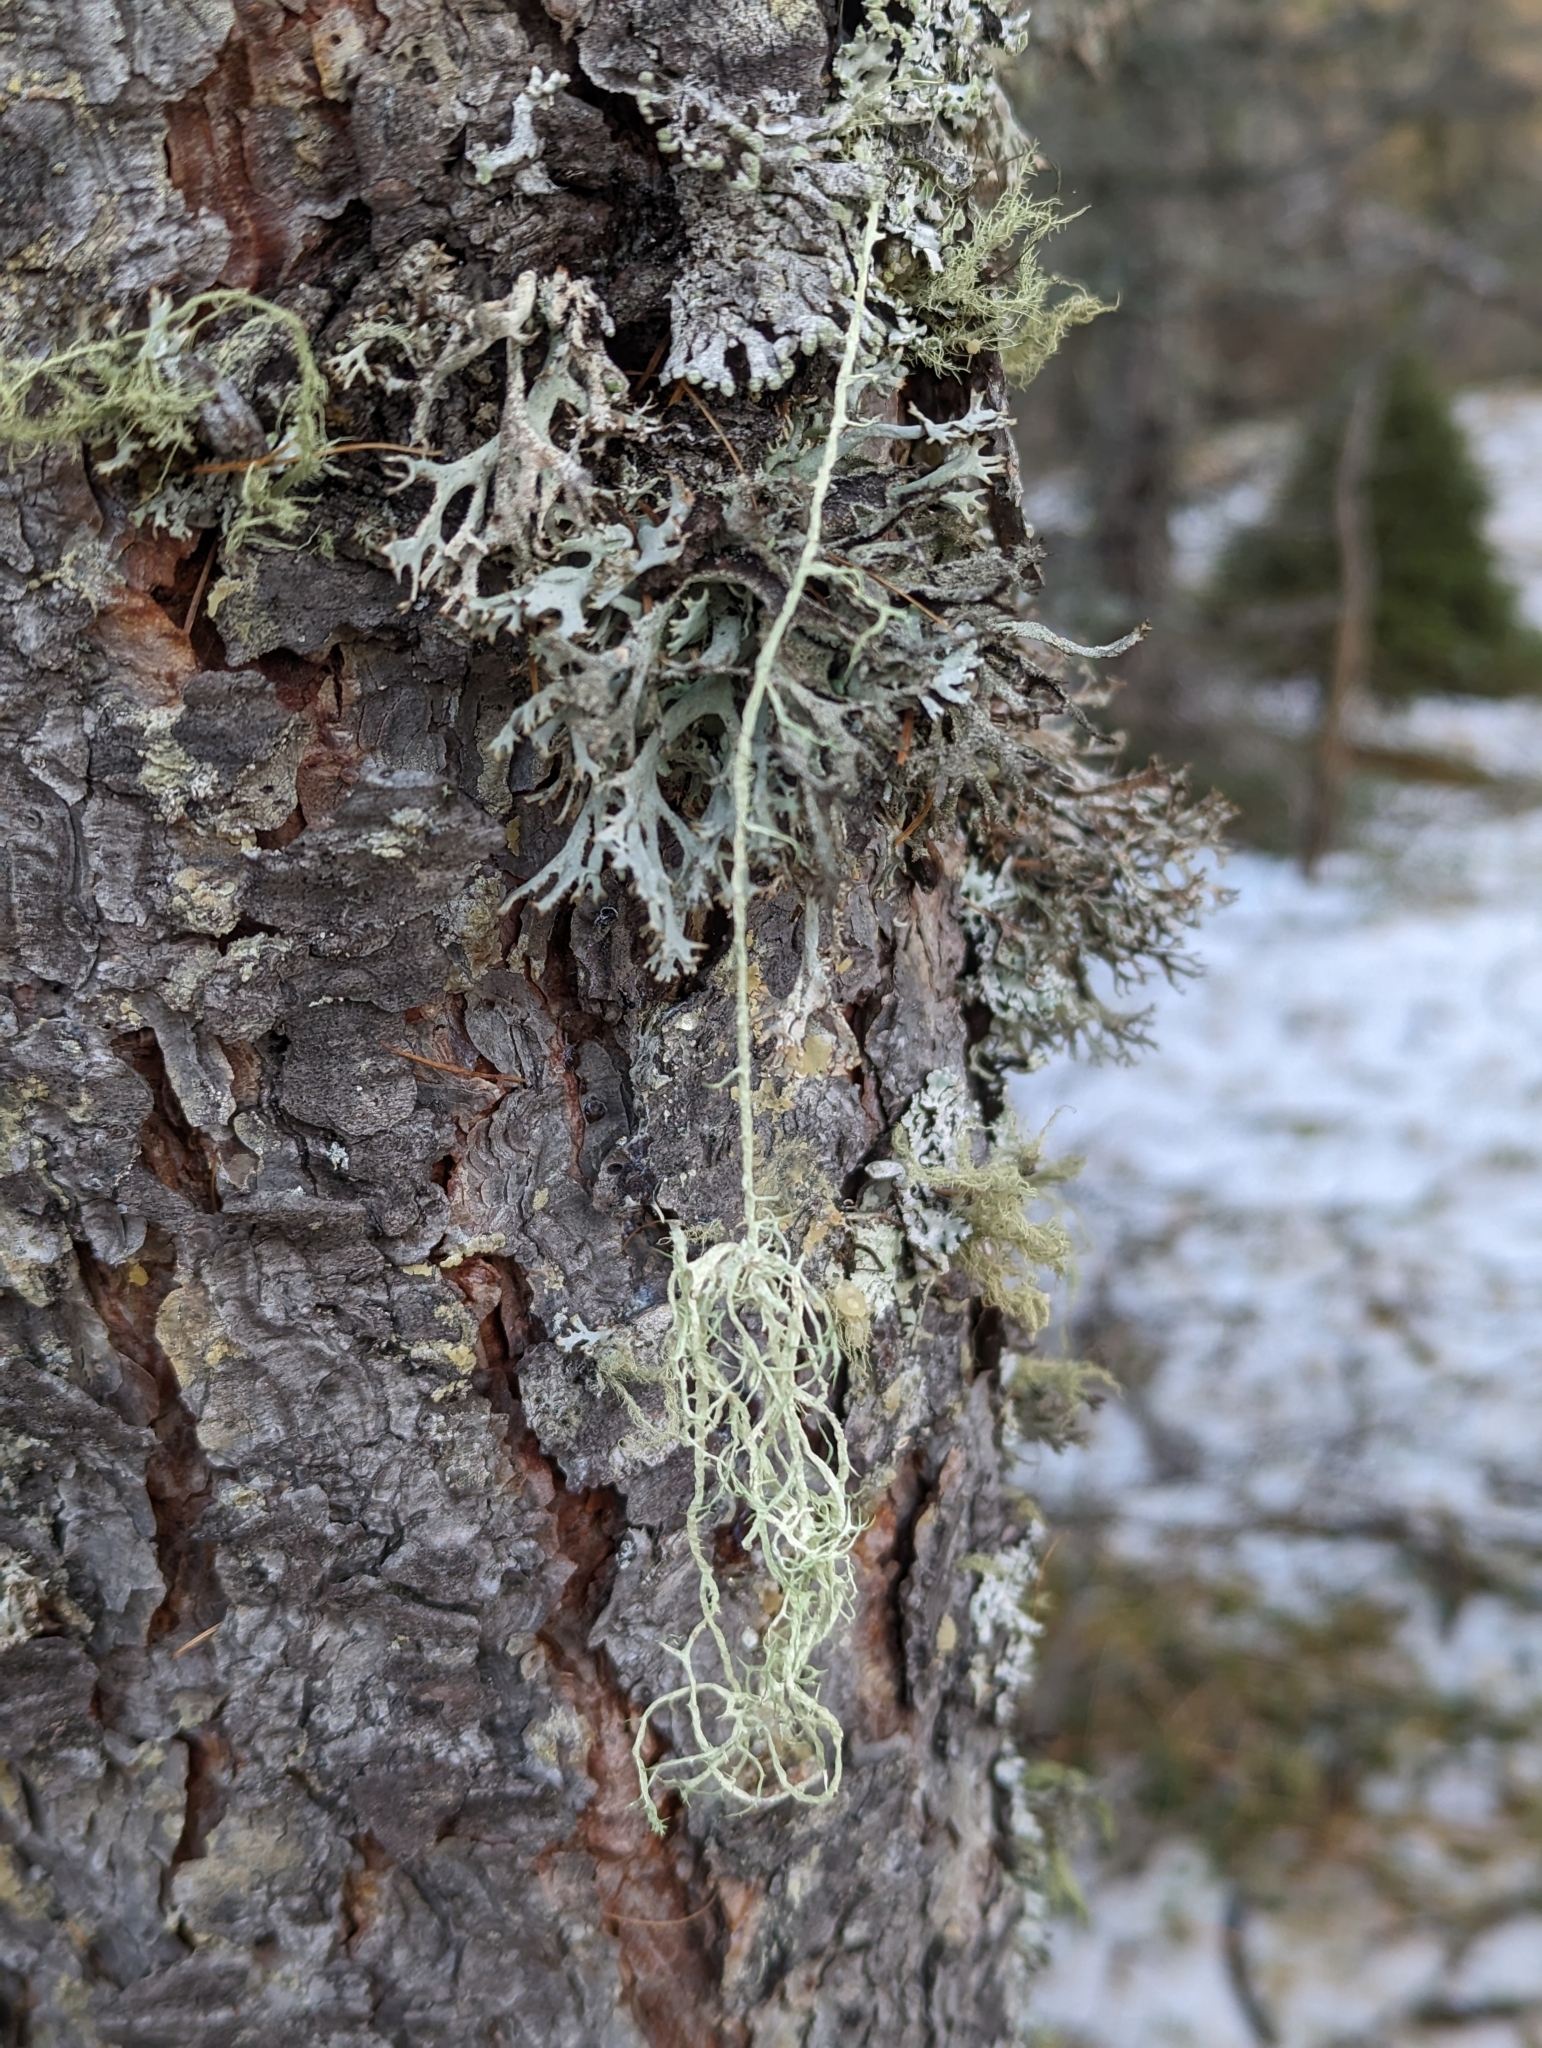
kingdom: Fungi
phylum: Ascomycota
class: Lecanoromycetes
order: Lecanorales
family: Parmeliaceae
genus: Evernia
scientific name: Evernia divaricata
